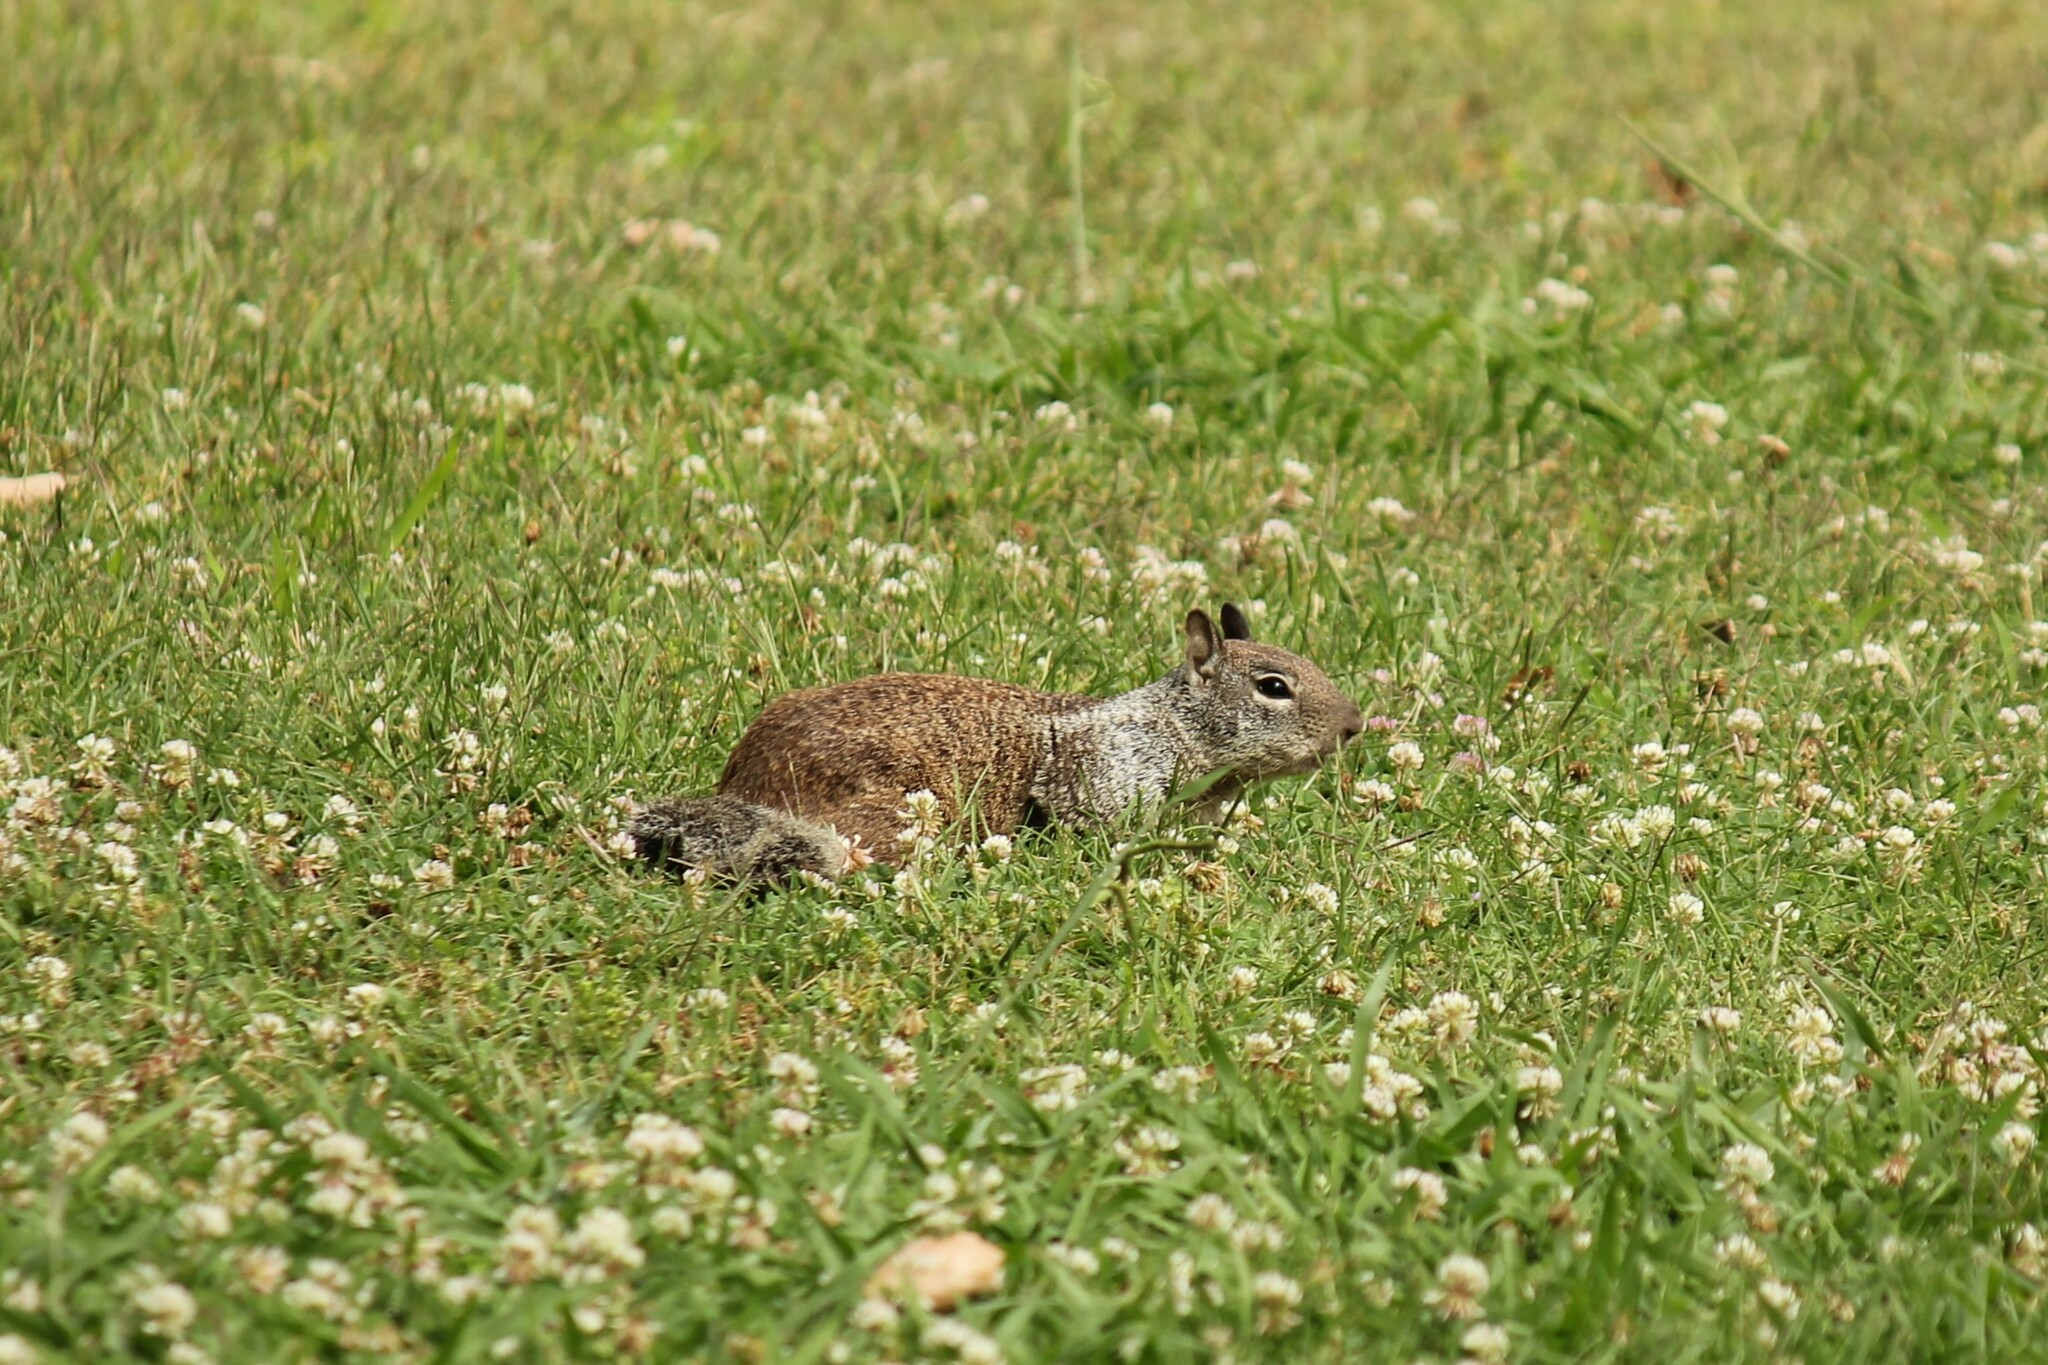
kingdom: Animalia
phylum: Chordata
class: Mammalia
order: Rodentia
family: Sciuridae
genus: Otospermophilus
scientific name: Otospermophilus beecheyi
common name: California ground squirrel
